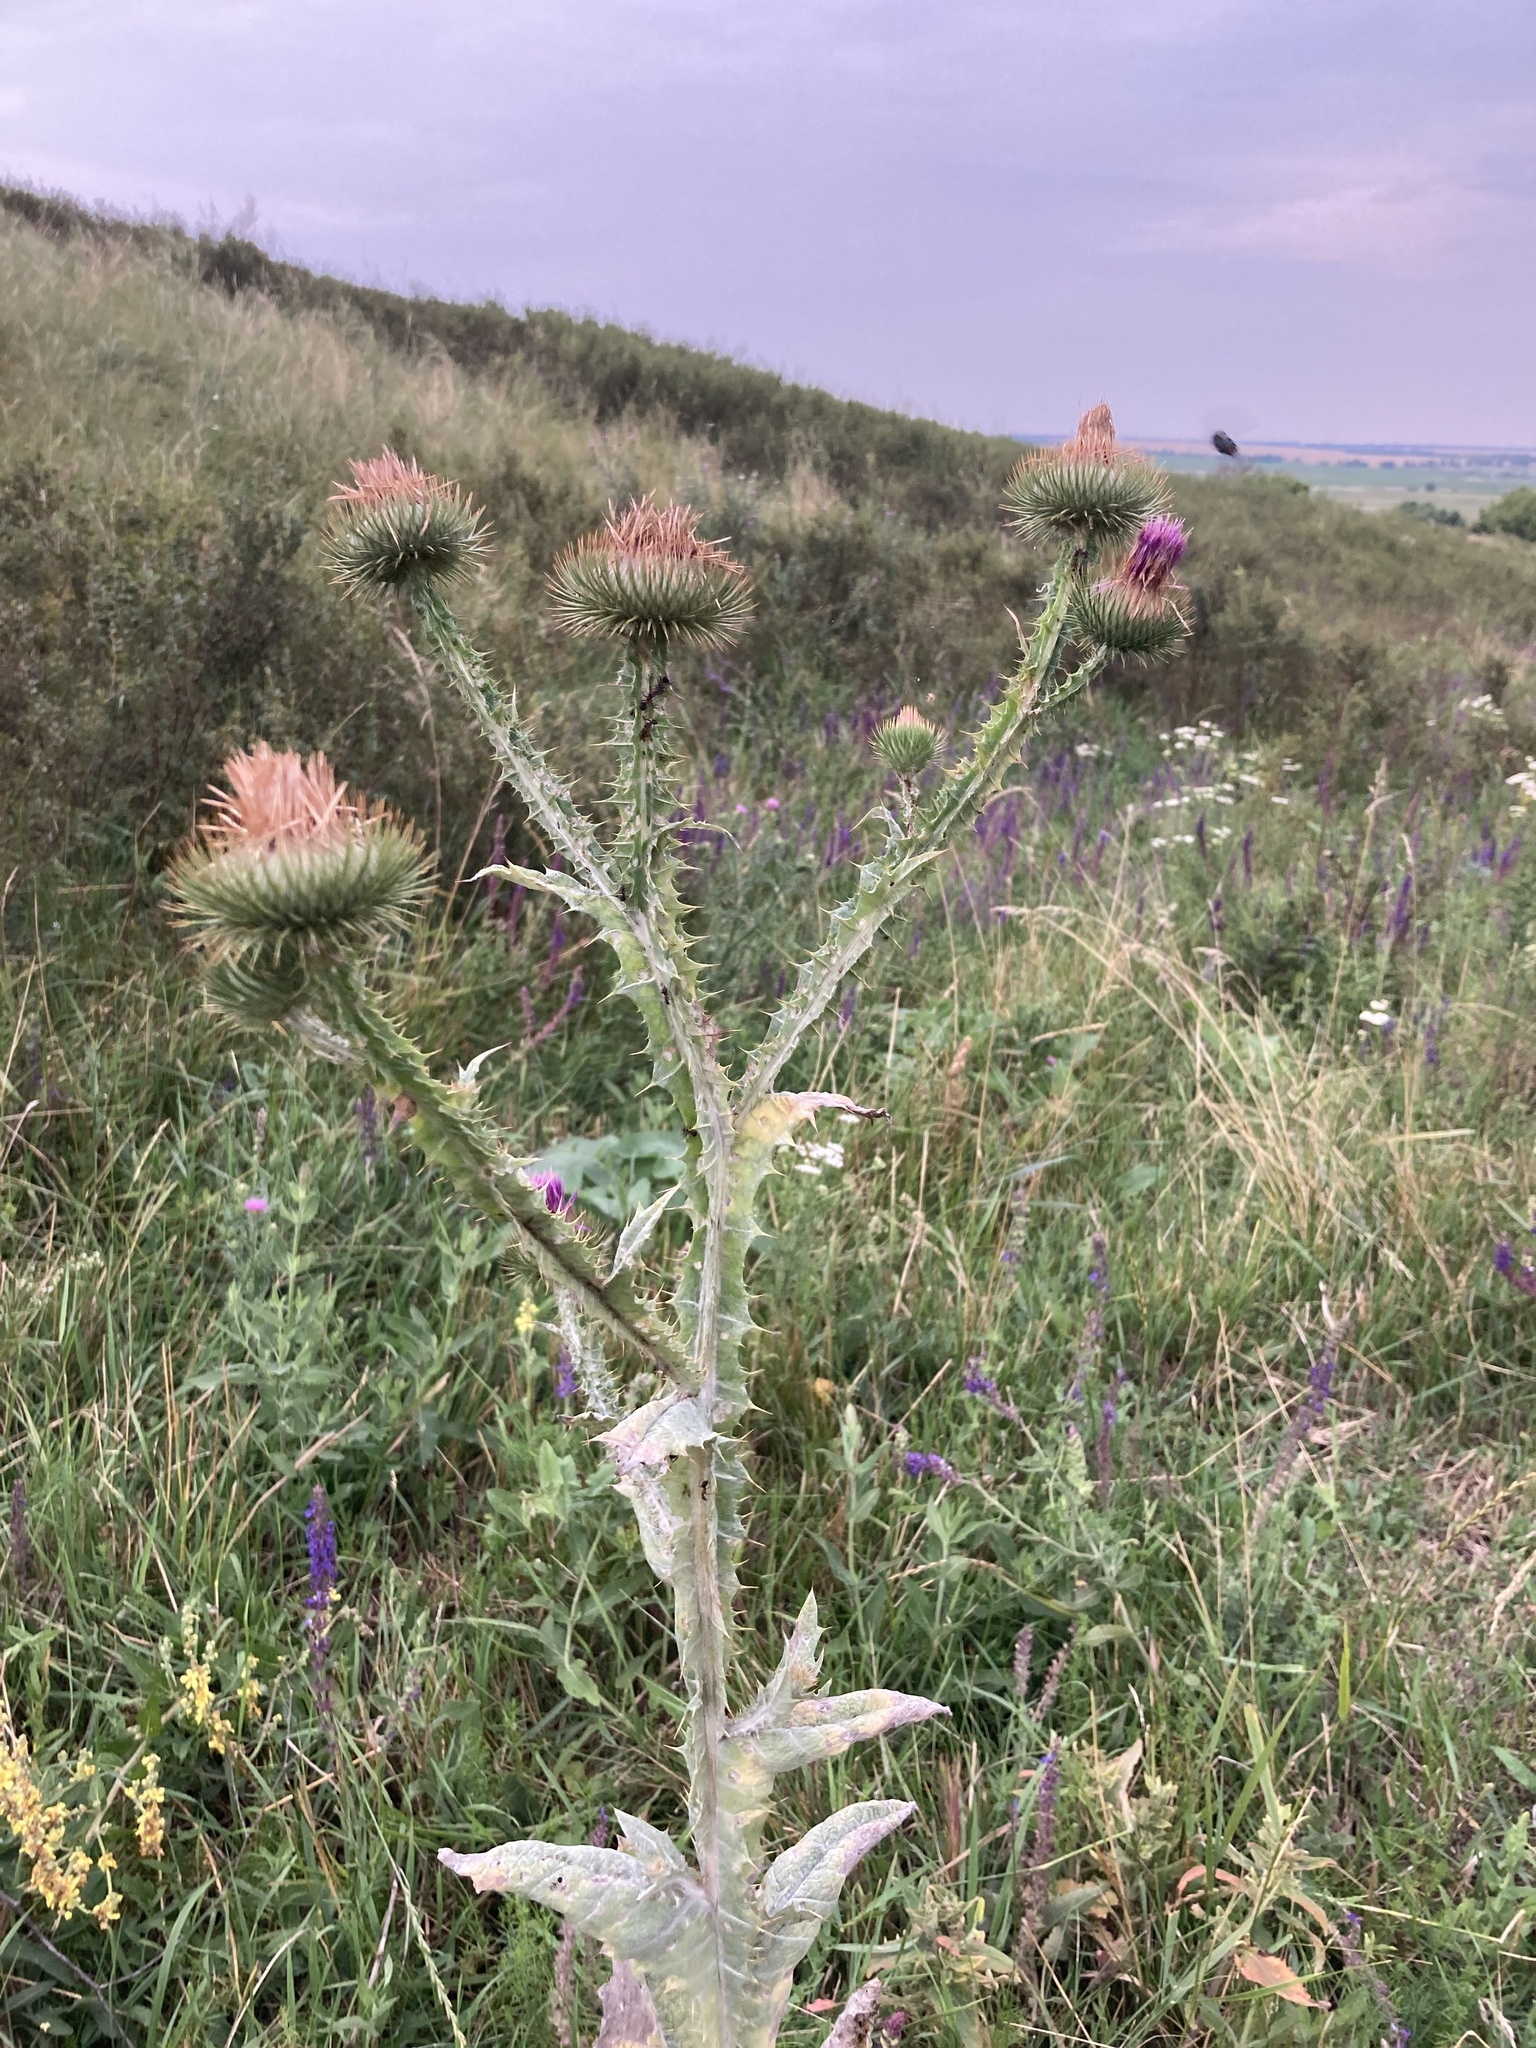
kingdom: Plantae
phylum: Tracheophyta
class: Magnoliopsida
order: Asterales
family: Asteraceae
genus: Onopordum
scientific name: Onopordum acanthium
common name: Scotch thistle
